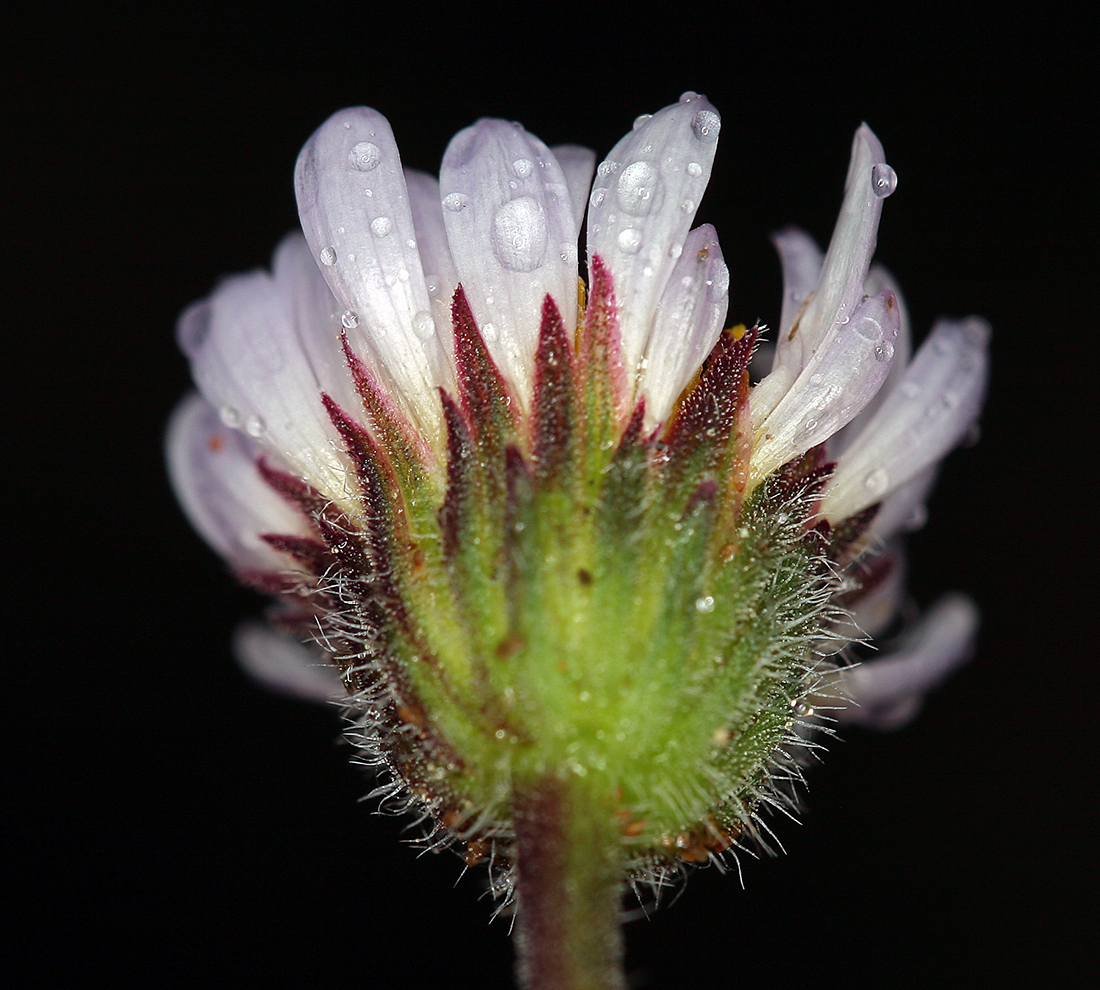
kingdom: Plantae
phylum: Tracheophyta
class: Magnoliopsida
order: Asterales
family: Asteraceae
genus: Erigeron
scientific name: Erigeron compositus
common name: Dwarf mountain fleabane
